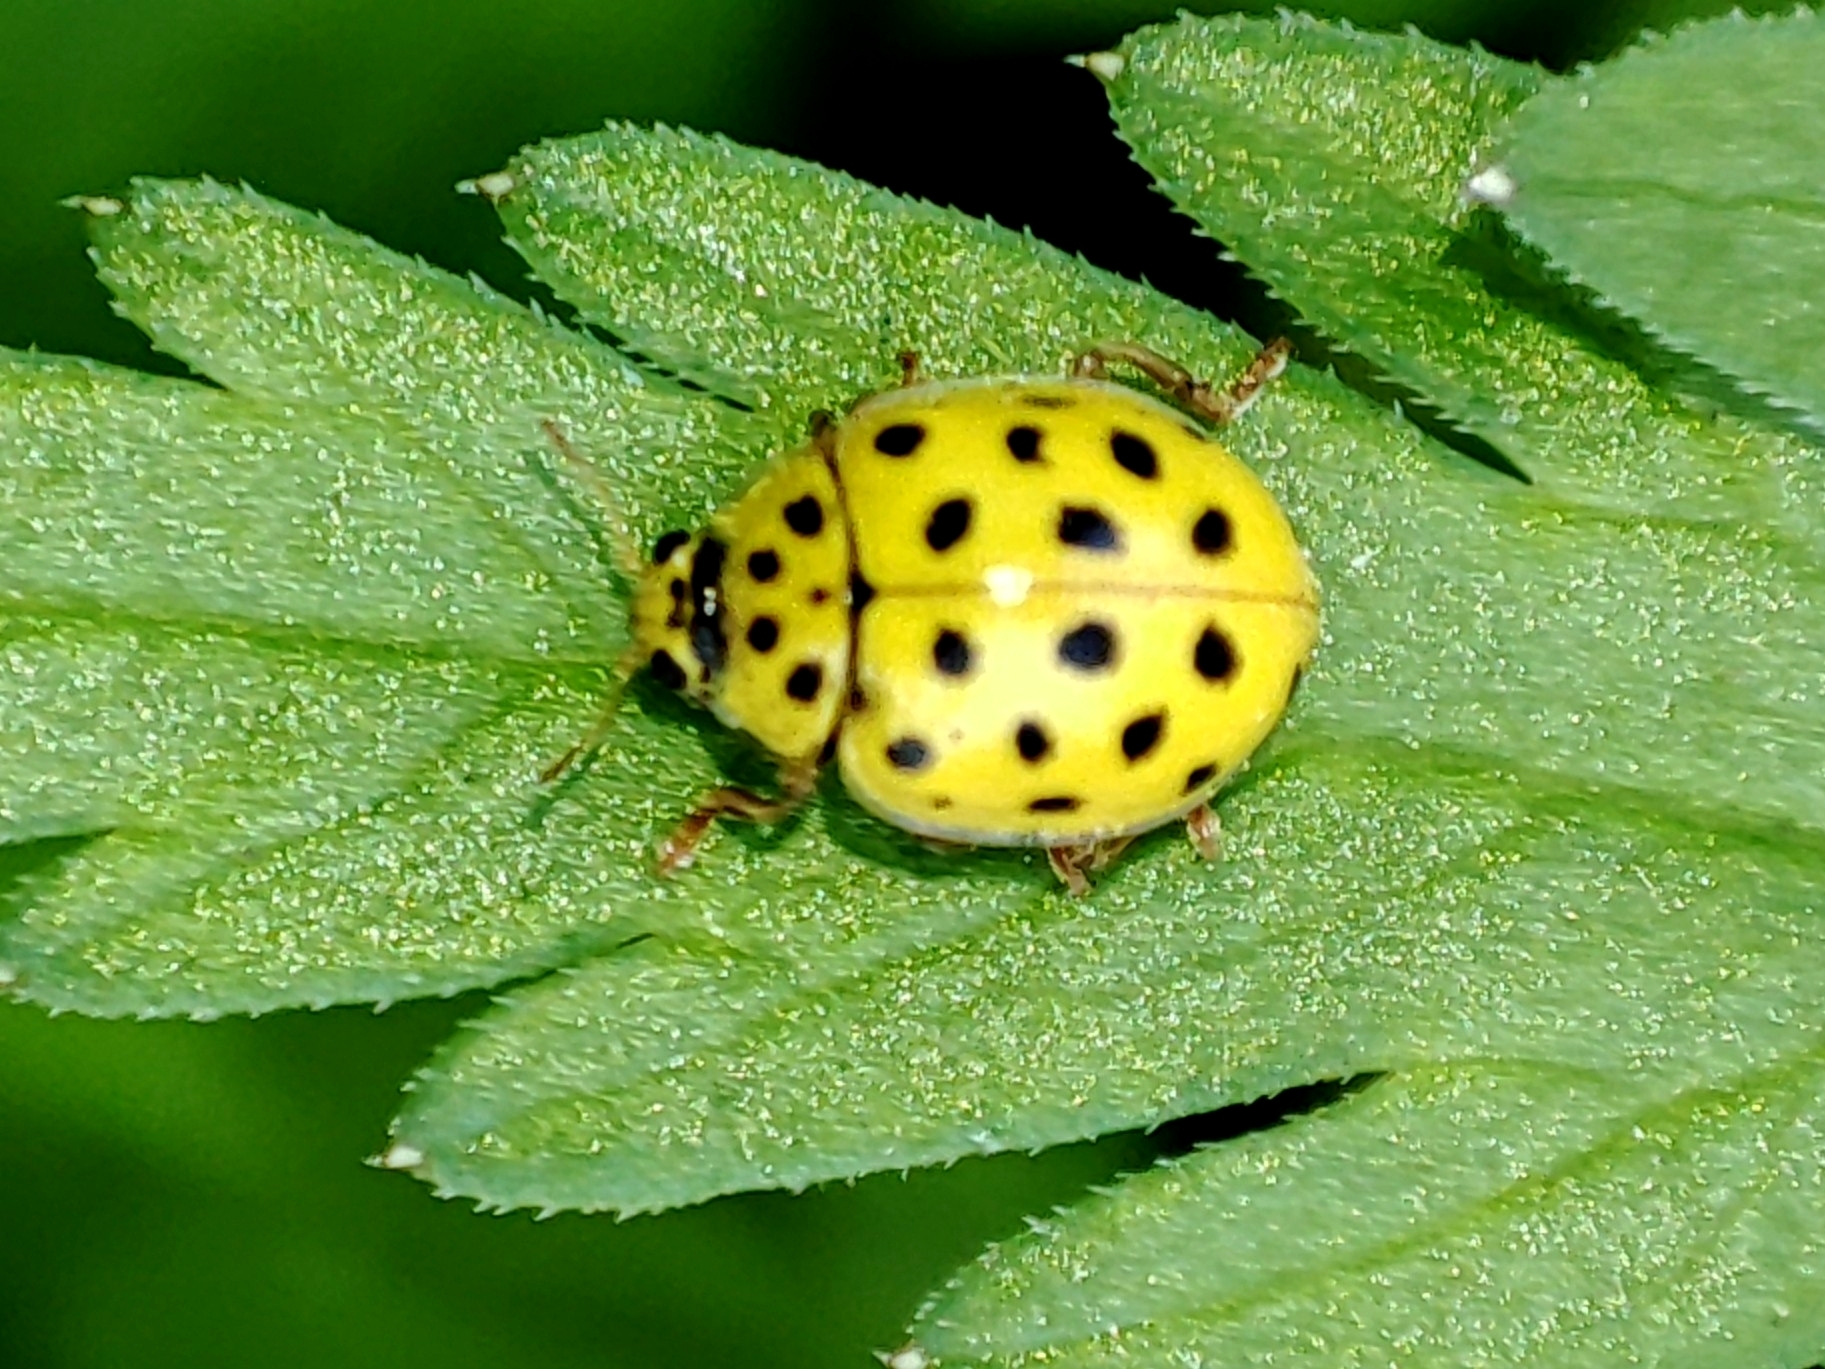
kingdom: Animalia
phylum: Arthropoda
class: Insecta
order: Coleoptera
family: Coccinellidae
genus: Psyllobora
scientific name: Psyllobora vigintiduopunctata
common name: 22-spot ladybird
